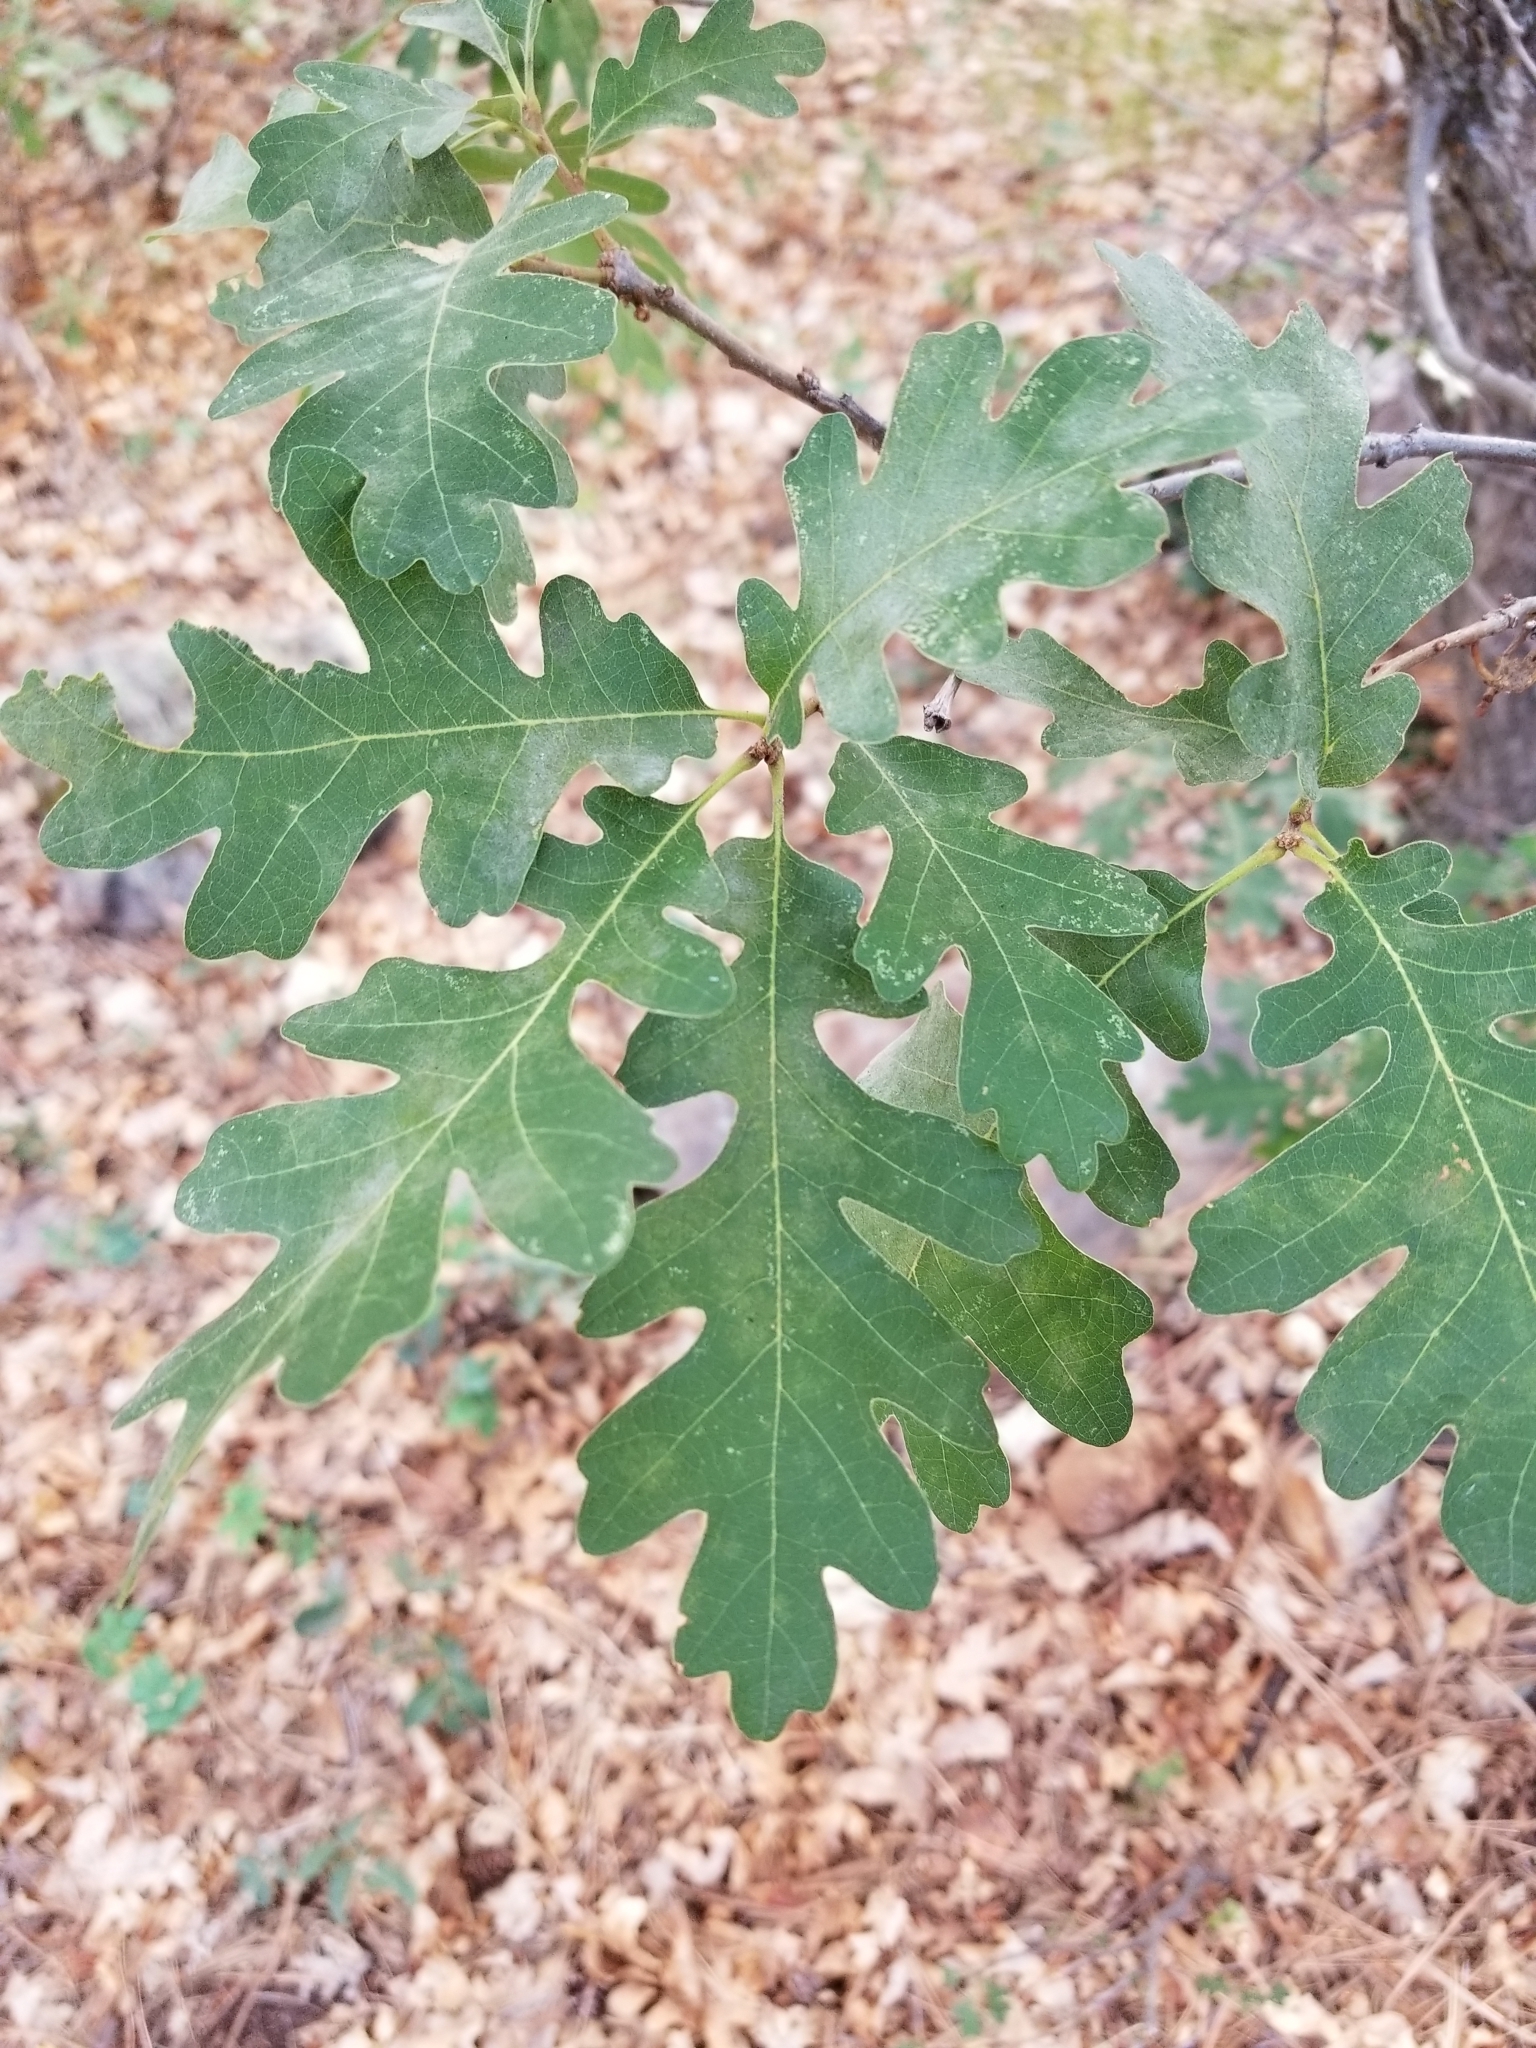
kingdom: Plantae
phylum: Tracheophyta
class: Magnoliopsida
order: Fagales
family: Fagaceae
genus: Quercus
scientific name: Quercus gambelii
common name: Gambel oak
